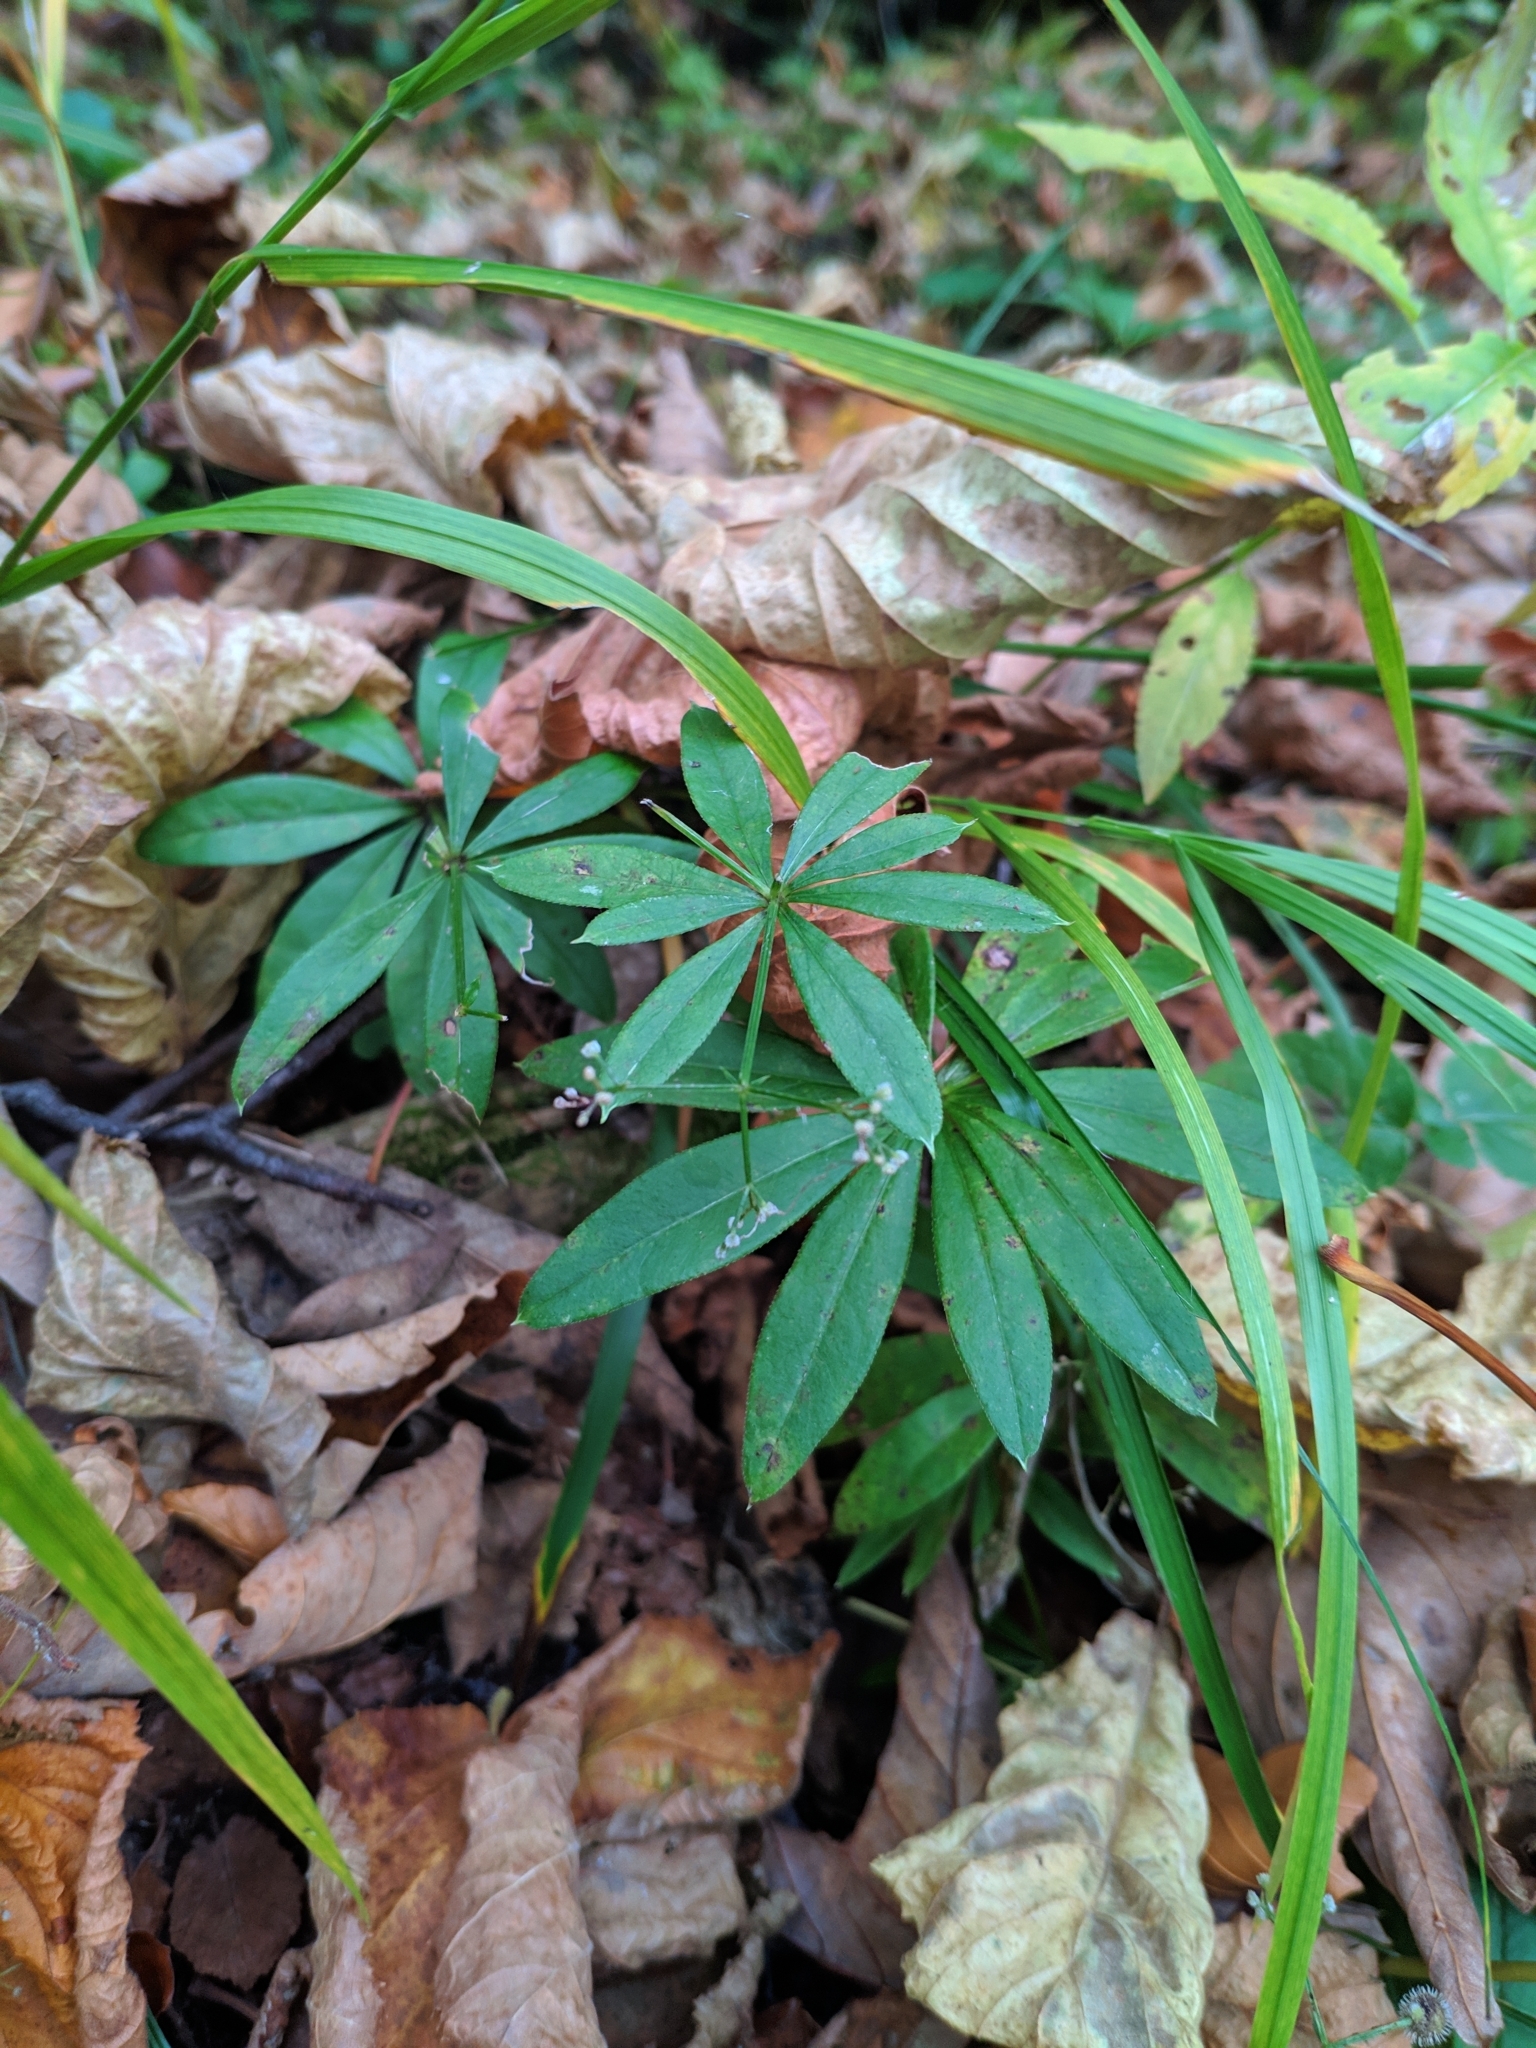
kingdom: Plantae
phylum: Tracheophyta
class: Magnoliopsida
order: Gentianales
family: Rubiaceae
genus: Galium
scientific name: Galium odoratum
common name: Sweet woodruff
